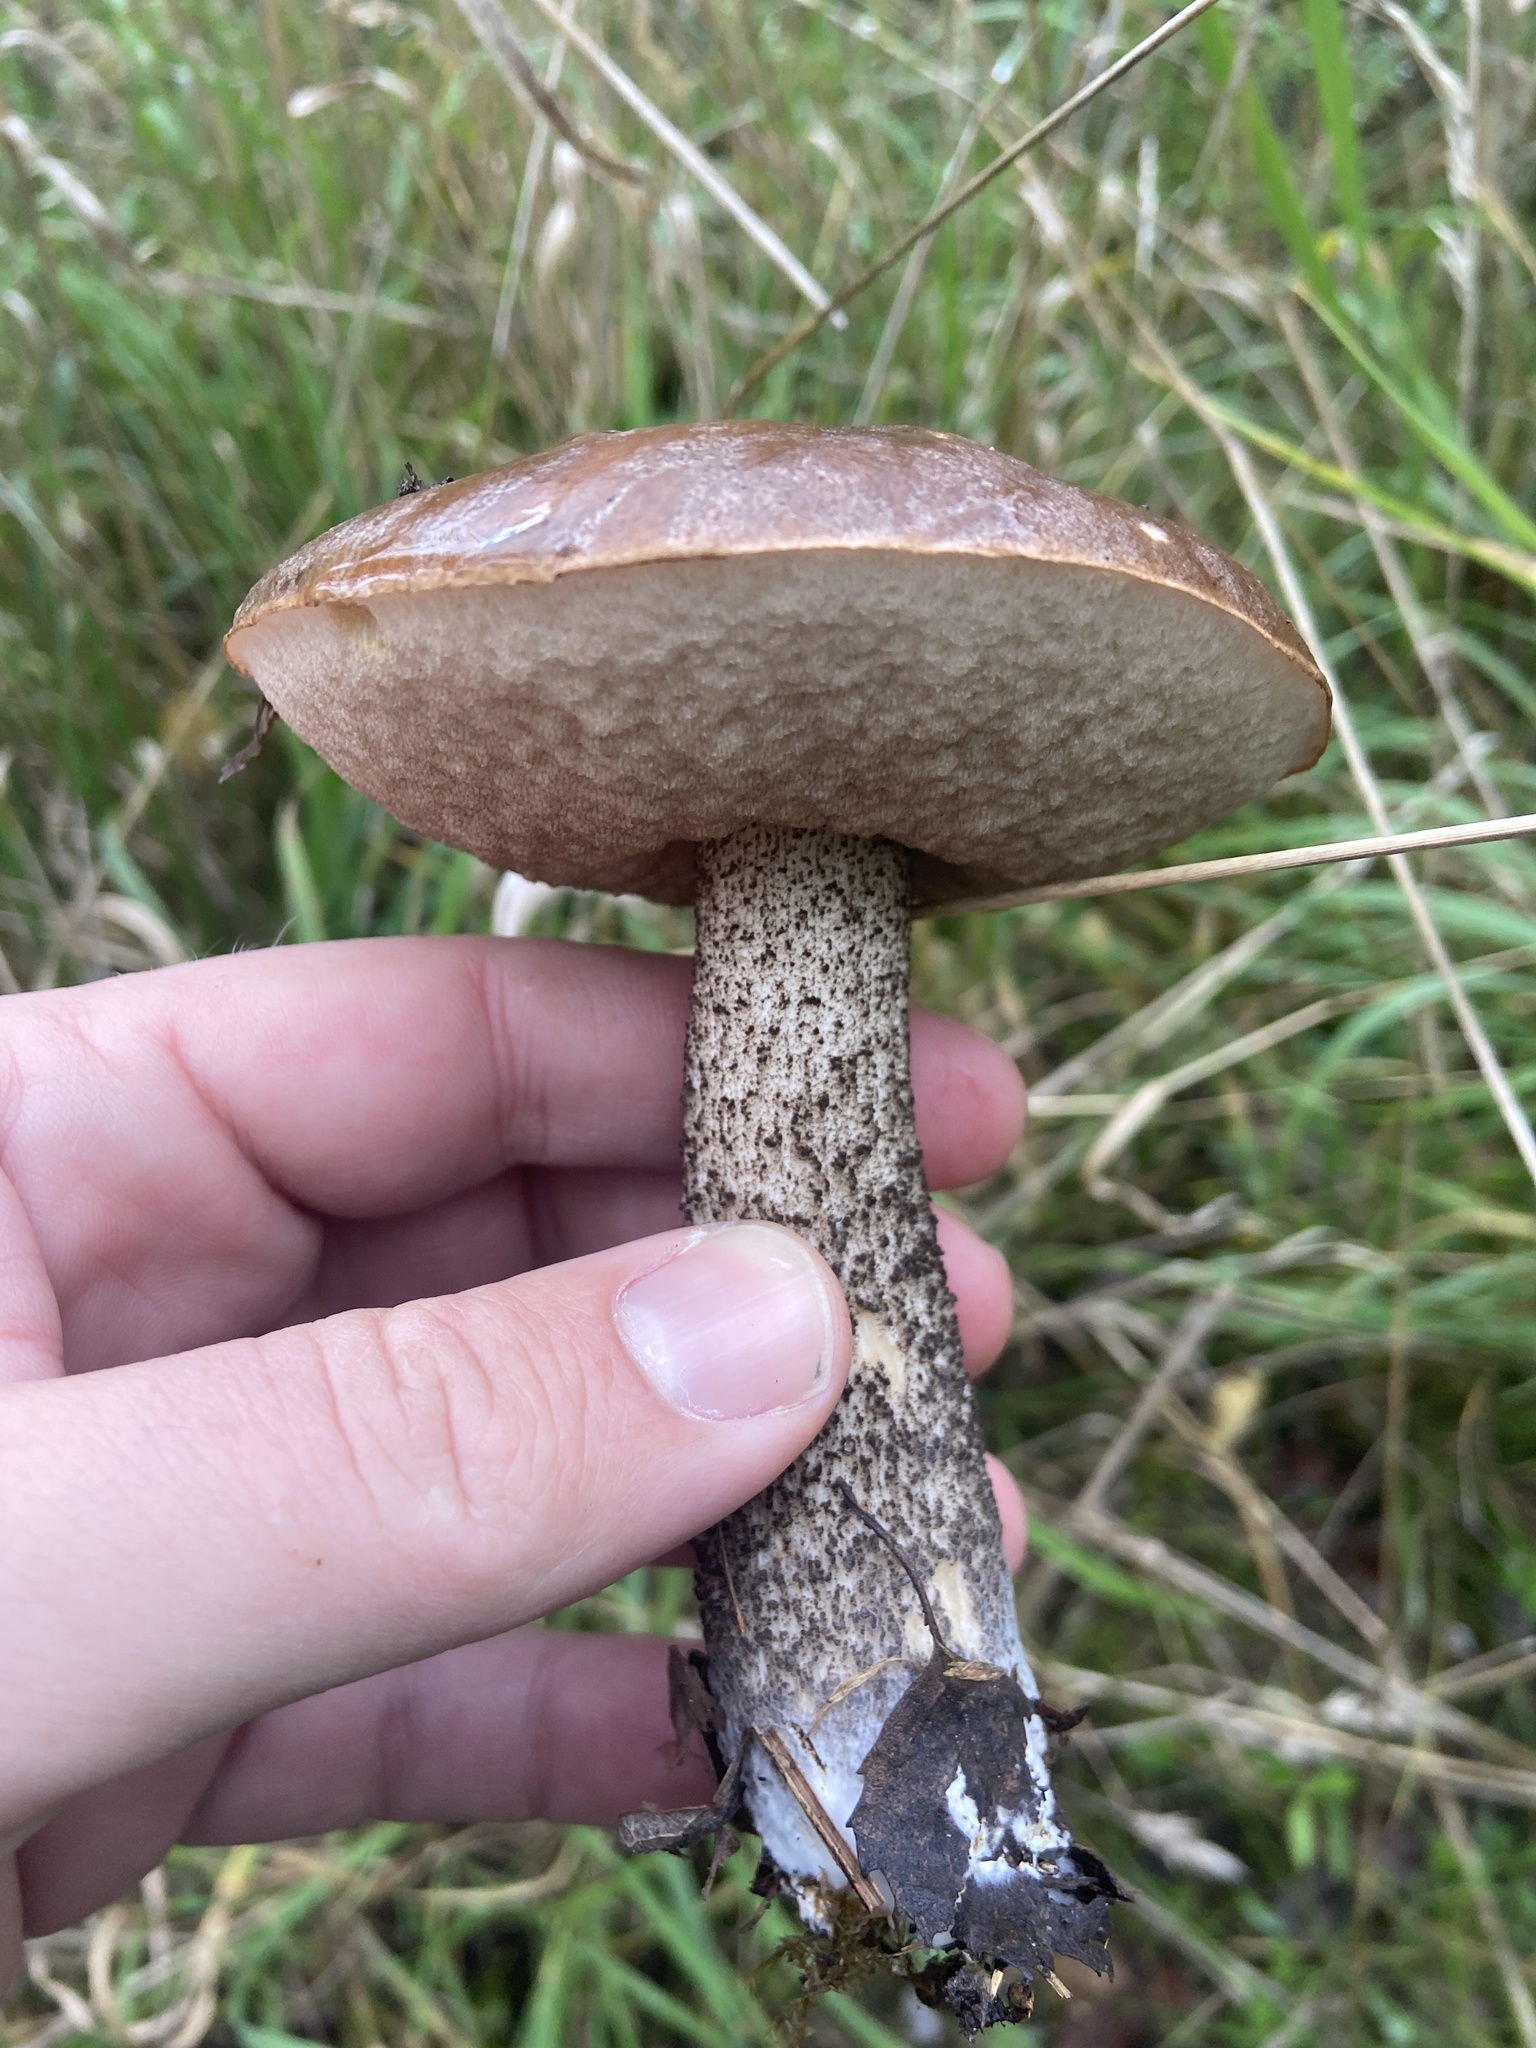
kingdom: Fungi
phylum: Basidiomycota
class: Agaricomycetes
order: Boletales
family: Boletaceae
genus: Leccinum
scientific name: Leccinum scabrum
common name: Blushing bolete
